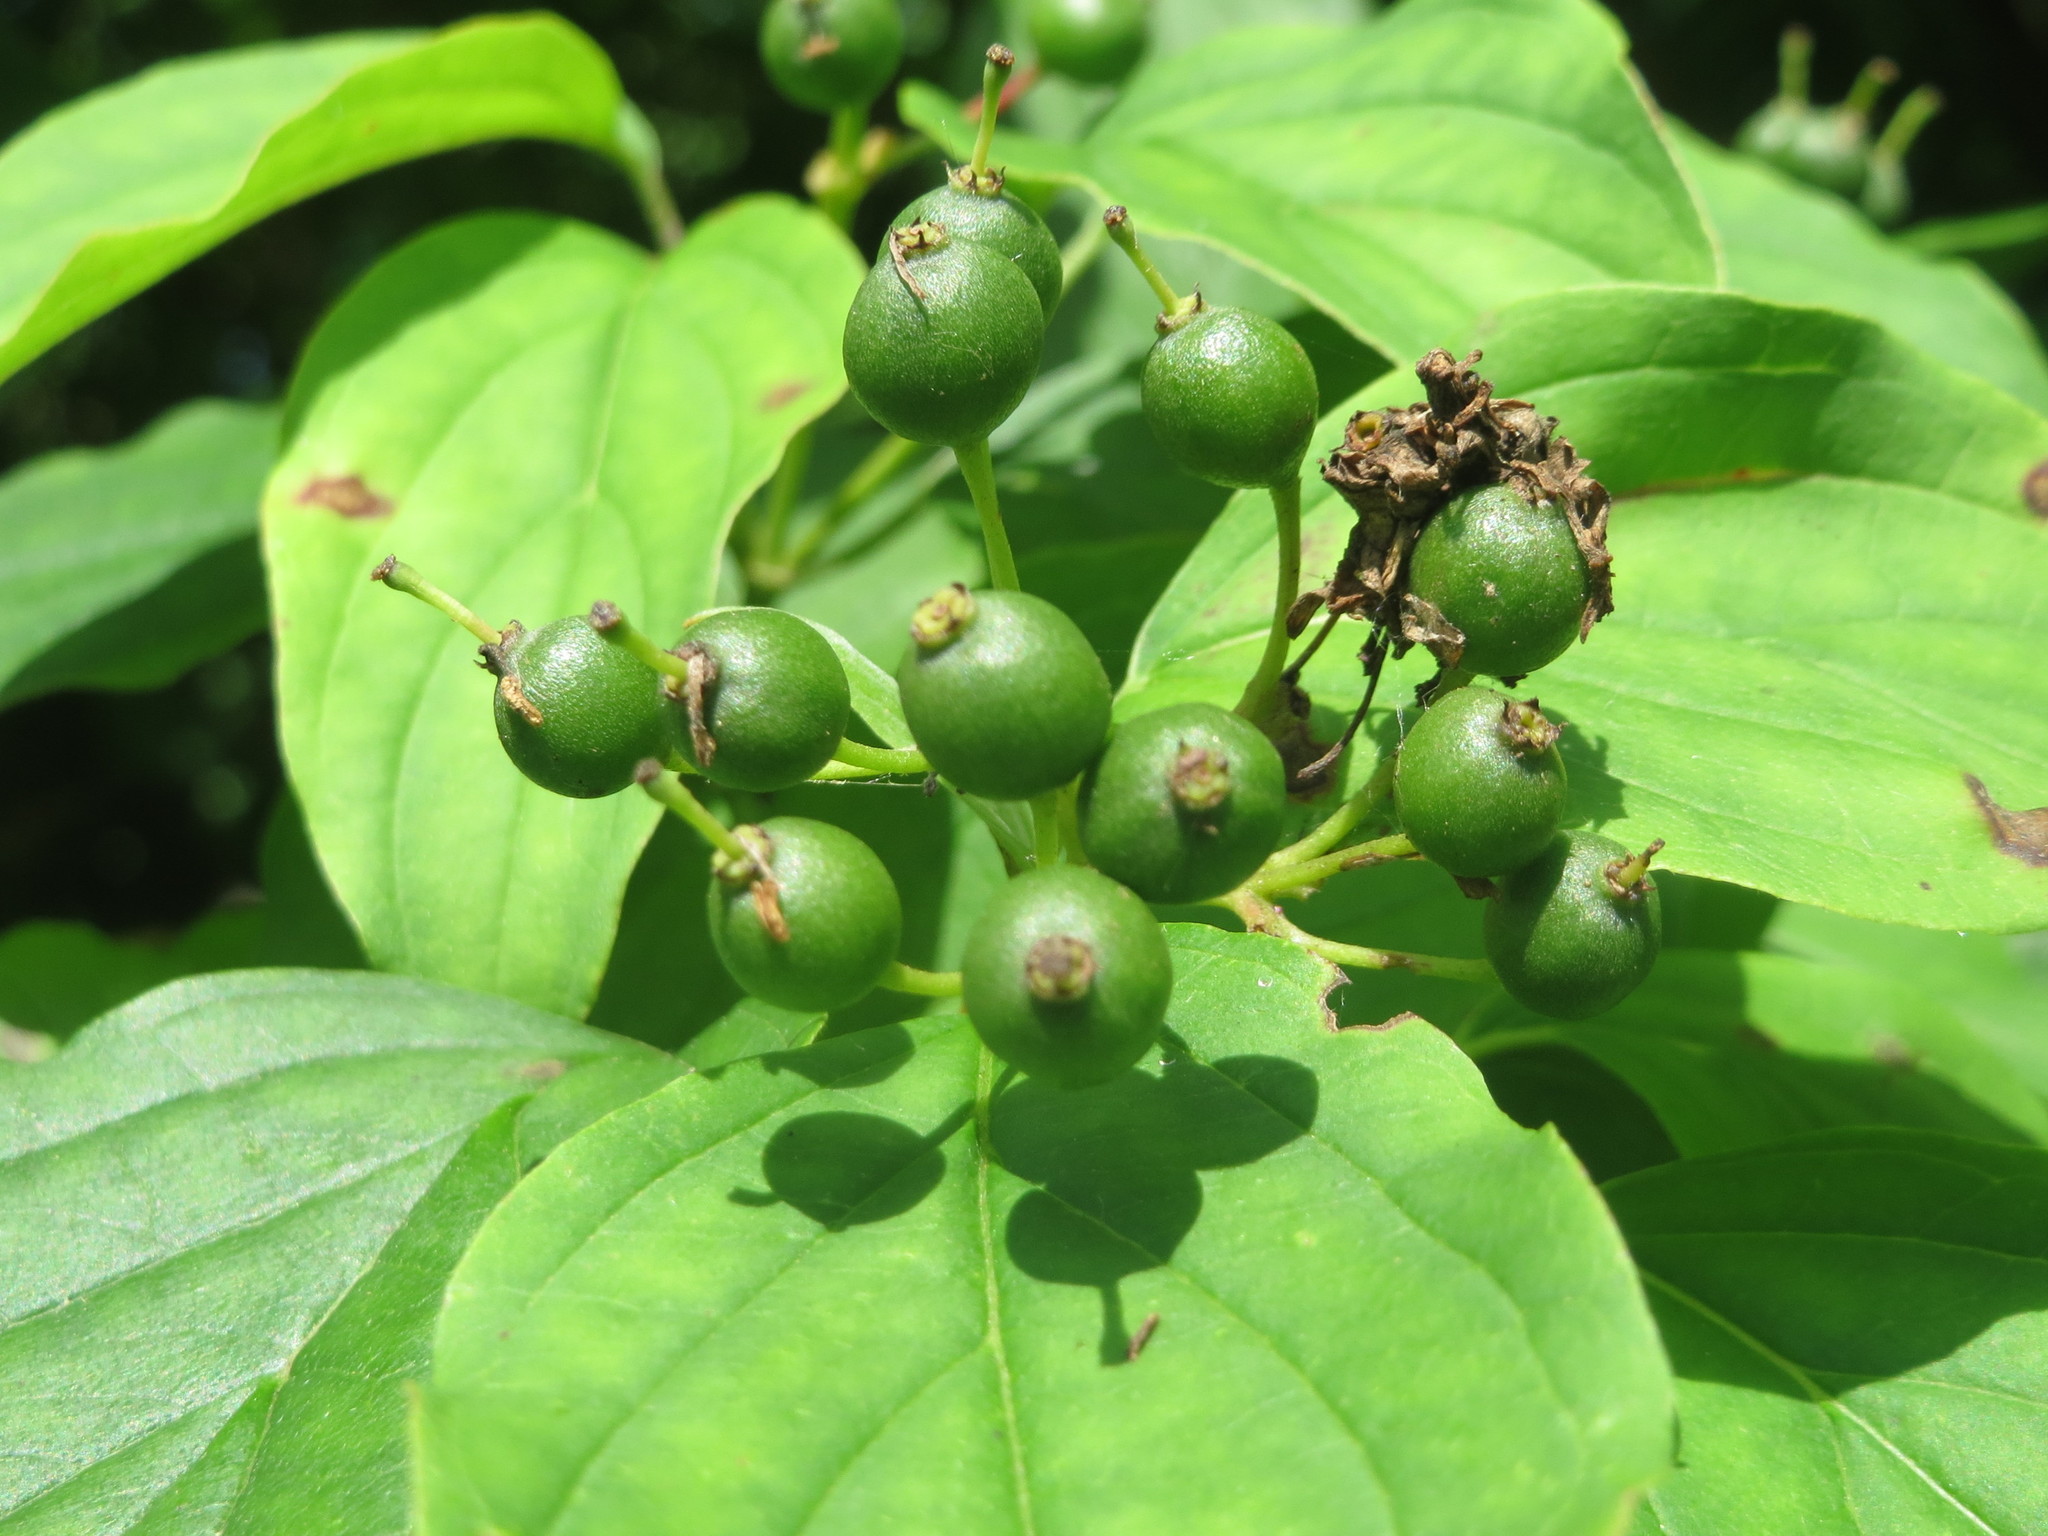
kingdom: Plantae
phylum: Tracheophyta
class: Magnoliopsida
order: Cornales
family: Cornaceae
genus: Cornus
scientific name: Cornus sanguinea
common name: Dogwood
